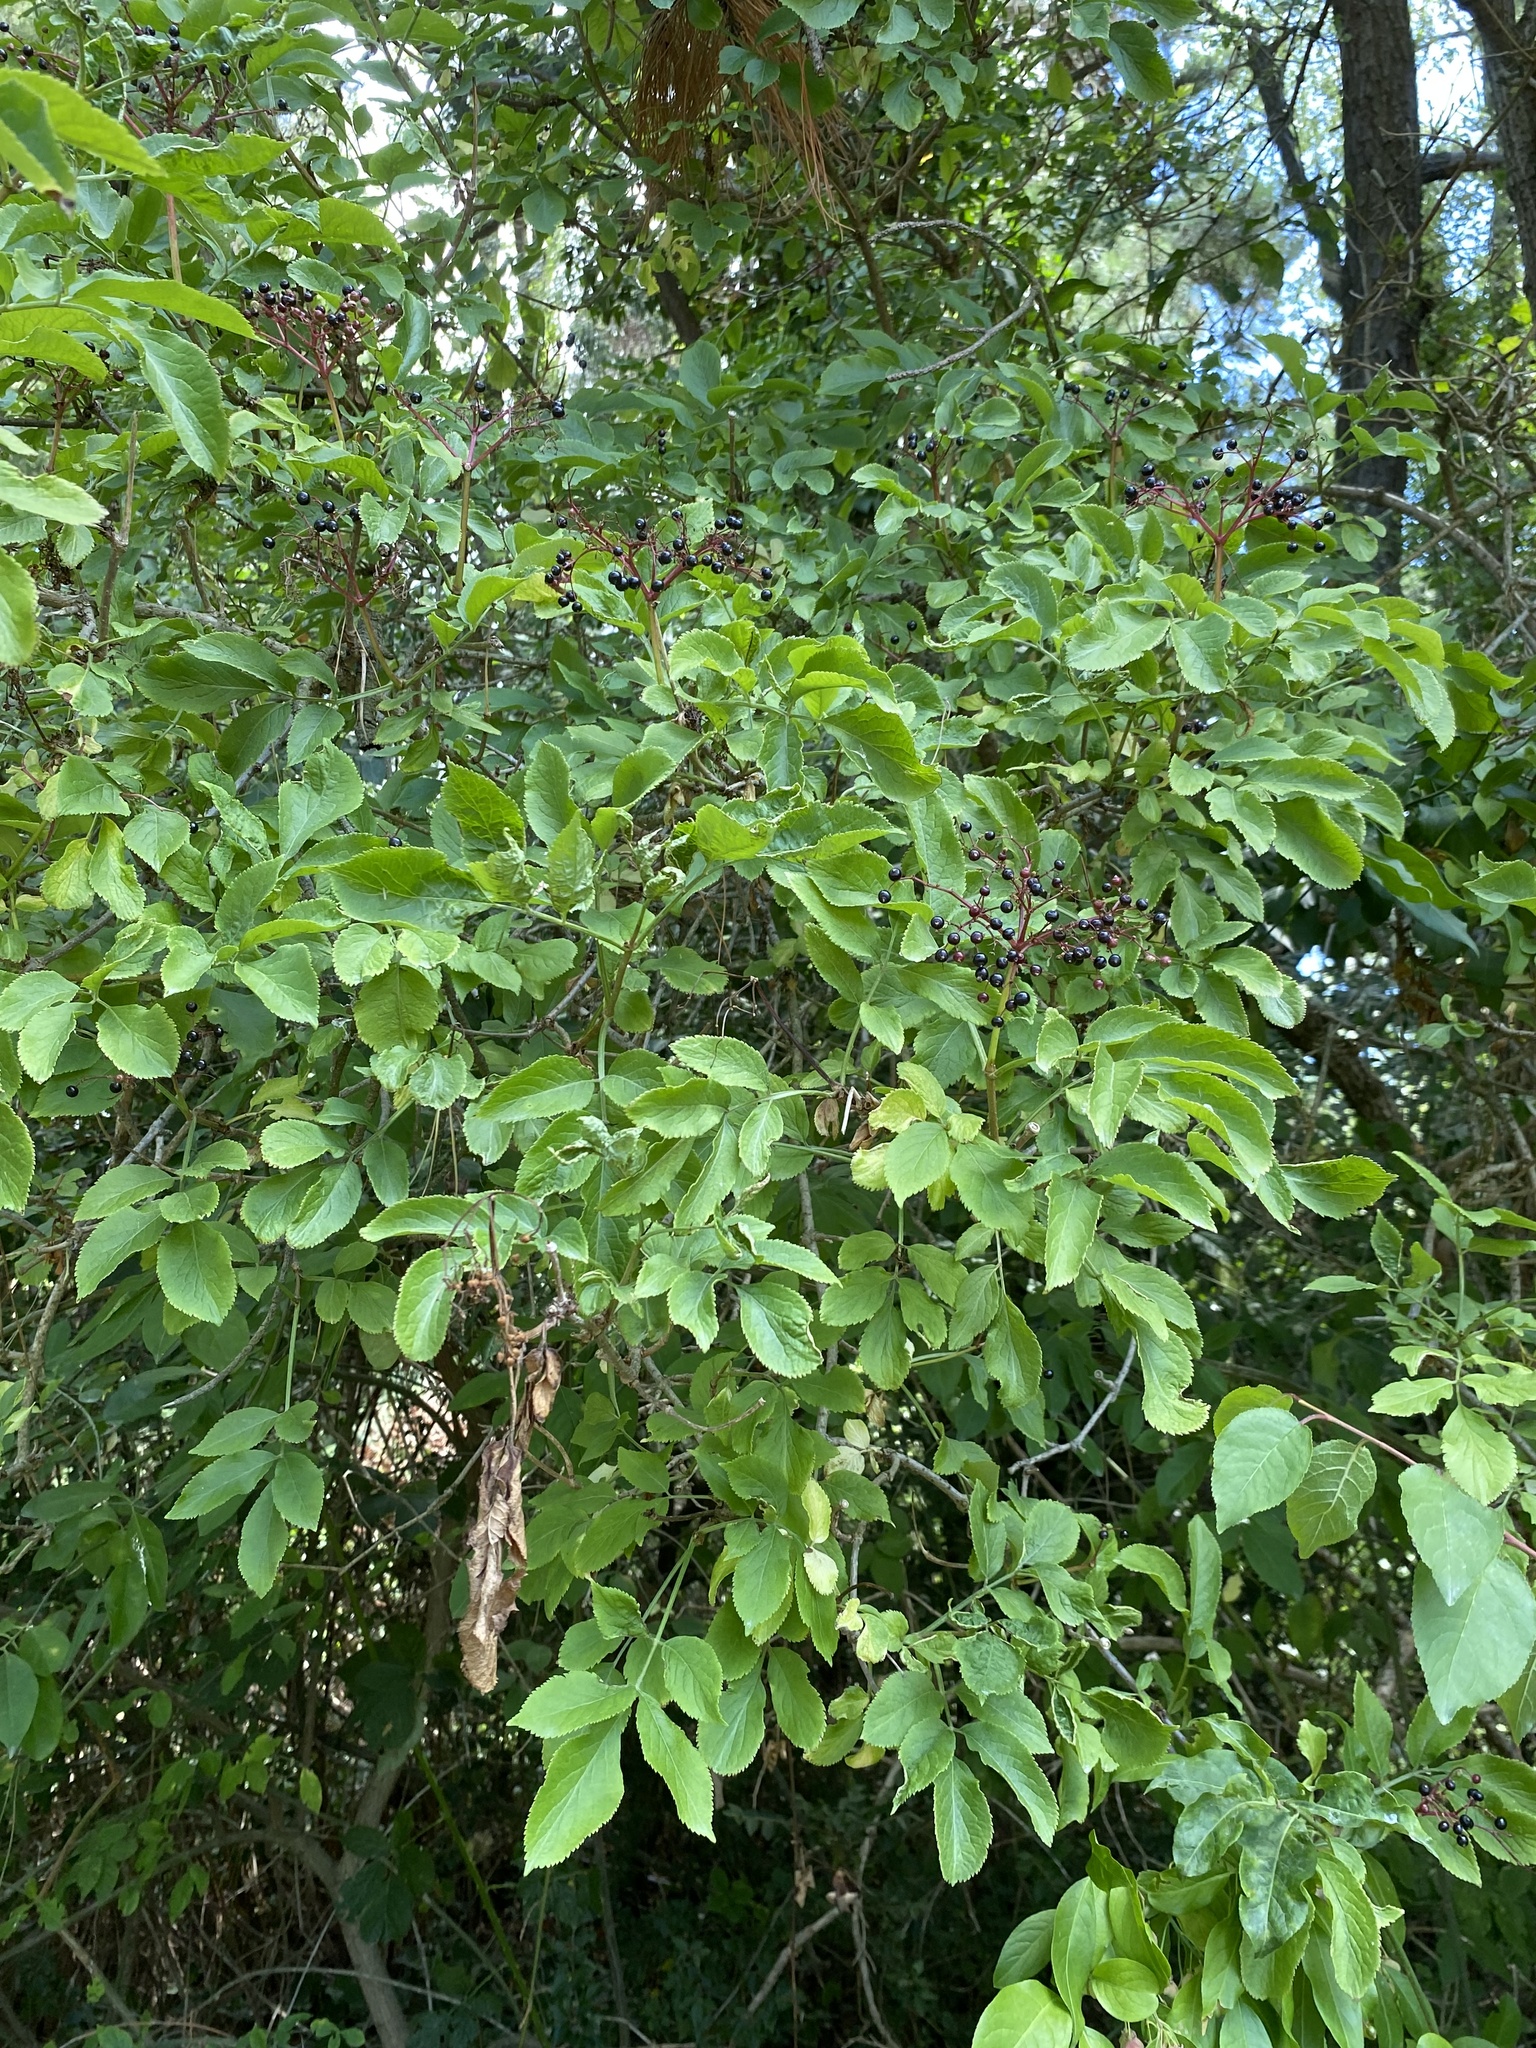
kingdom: Plantae
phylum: Tracheophyta
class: Magnoliopsida
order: Dipsacales
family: Viburnaceae
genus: Sambucus
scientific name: Sambucus nigra
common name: Elder
